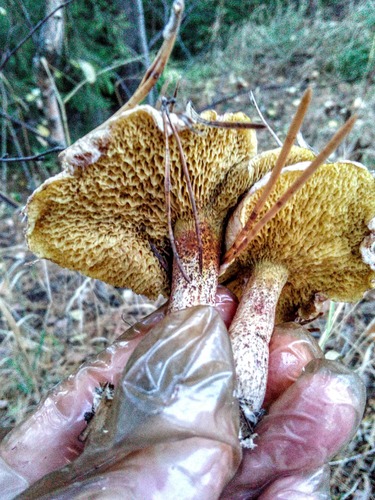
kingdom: Fungi
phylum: Basidiomycota
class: Agaricomycetes
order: Boletales
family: Suillaceae
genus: Suillus
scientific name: Suillus americanus
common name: Chicken fat mushroom
